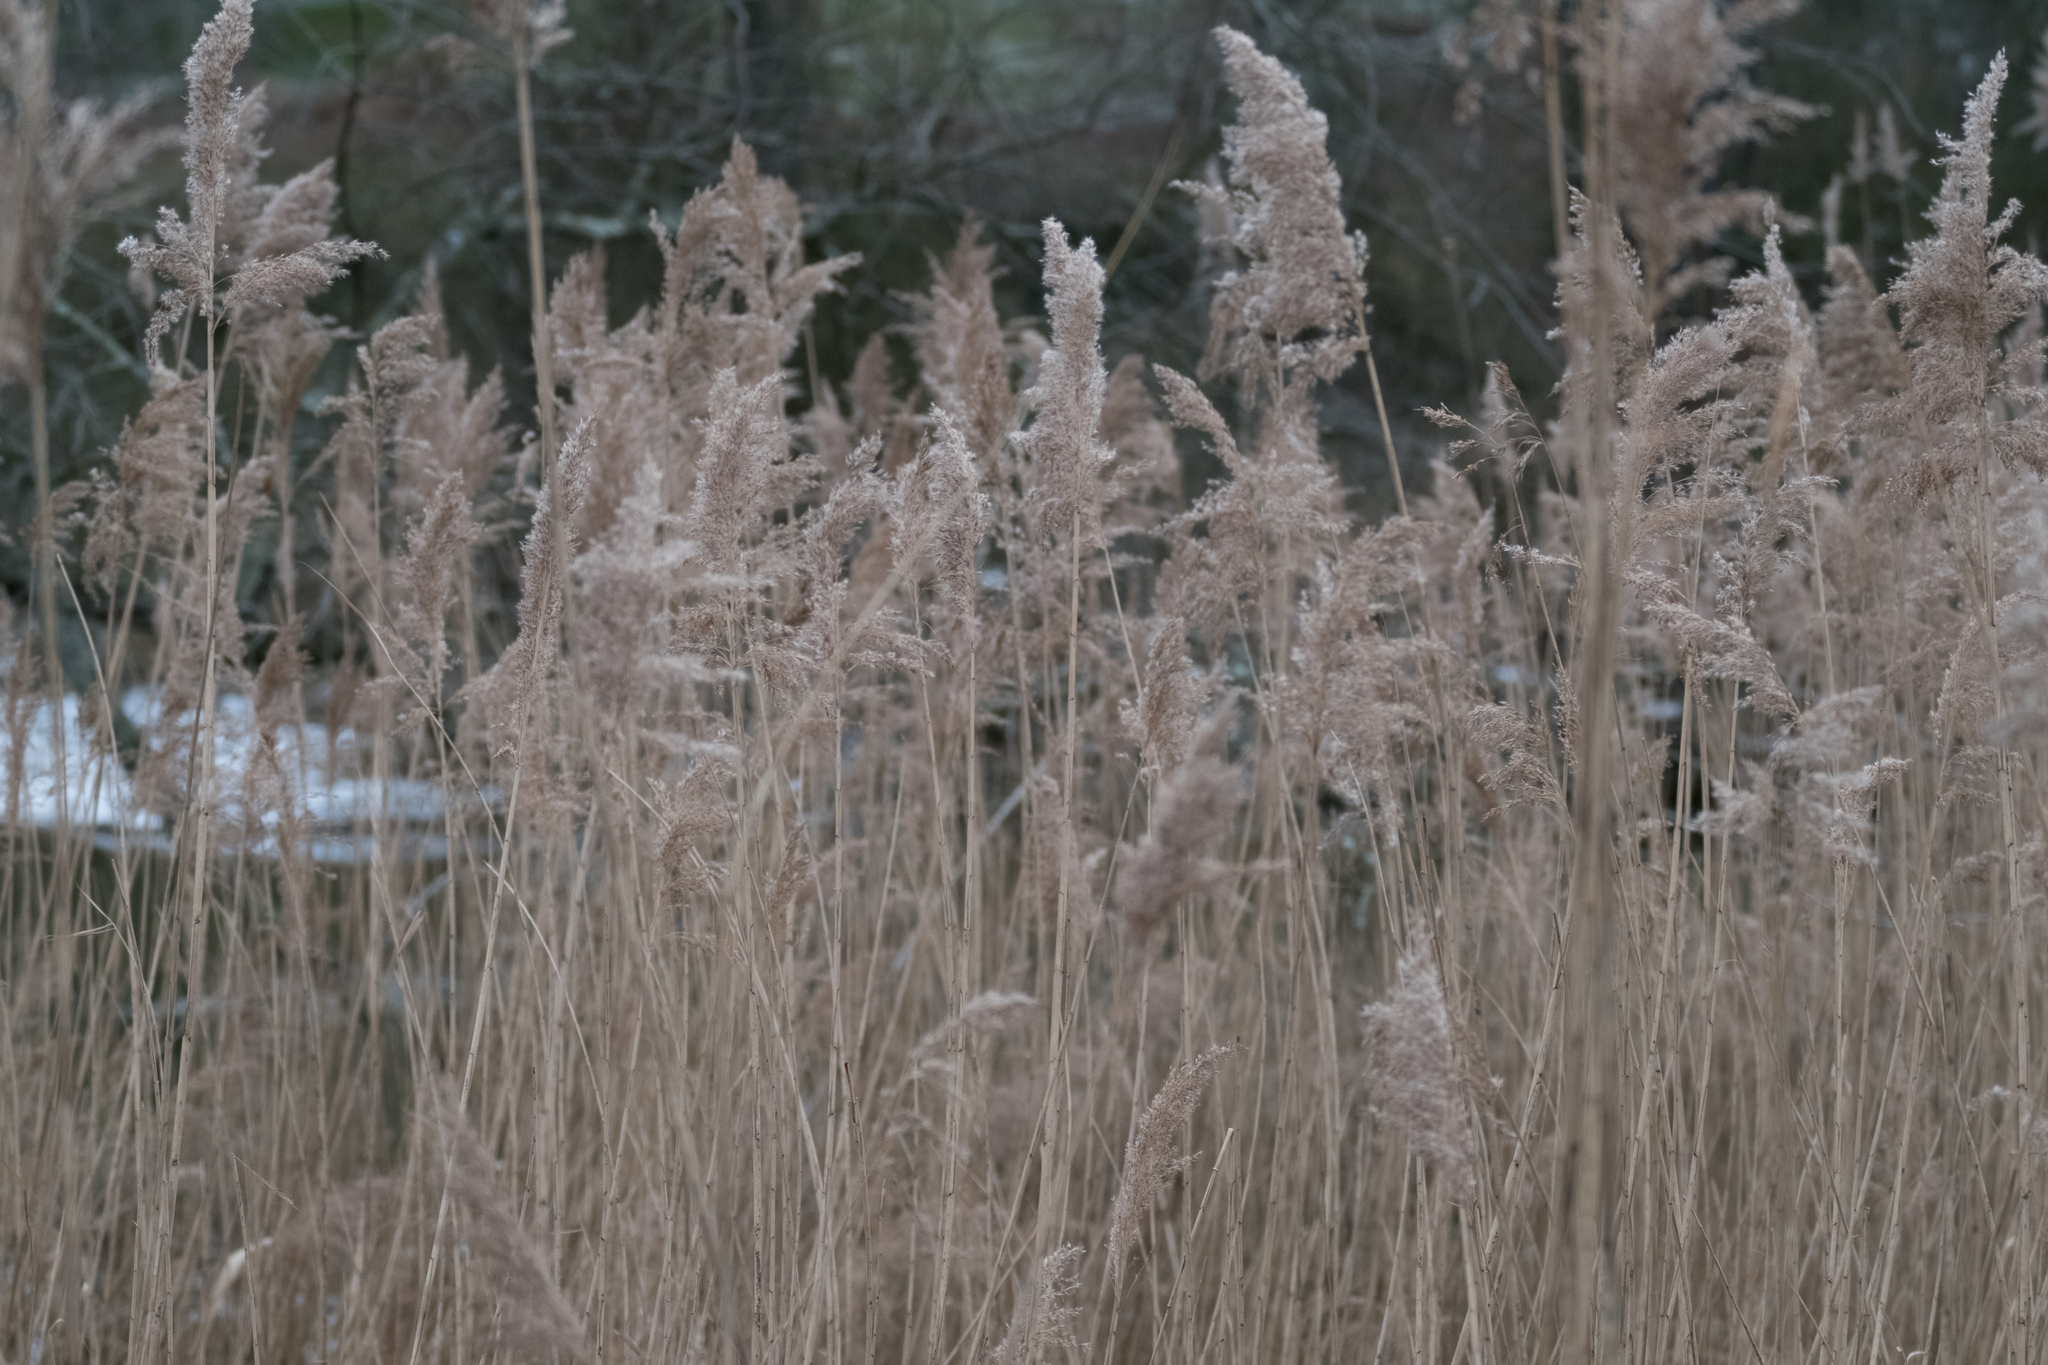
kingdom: Plantae
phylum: Tracheophyta
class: Liliopsida
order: Poales
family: Poaceae
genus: Phragmites
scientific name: Phragmites australis
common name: Common reed
